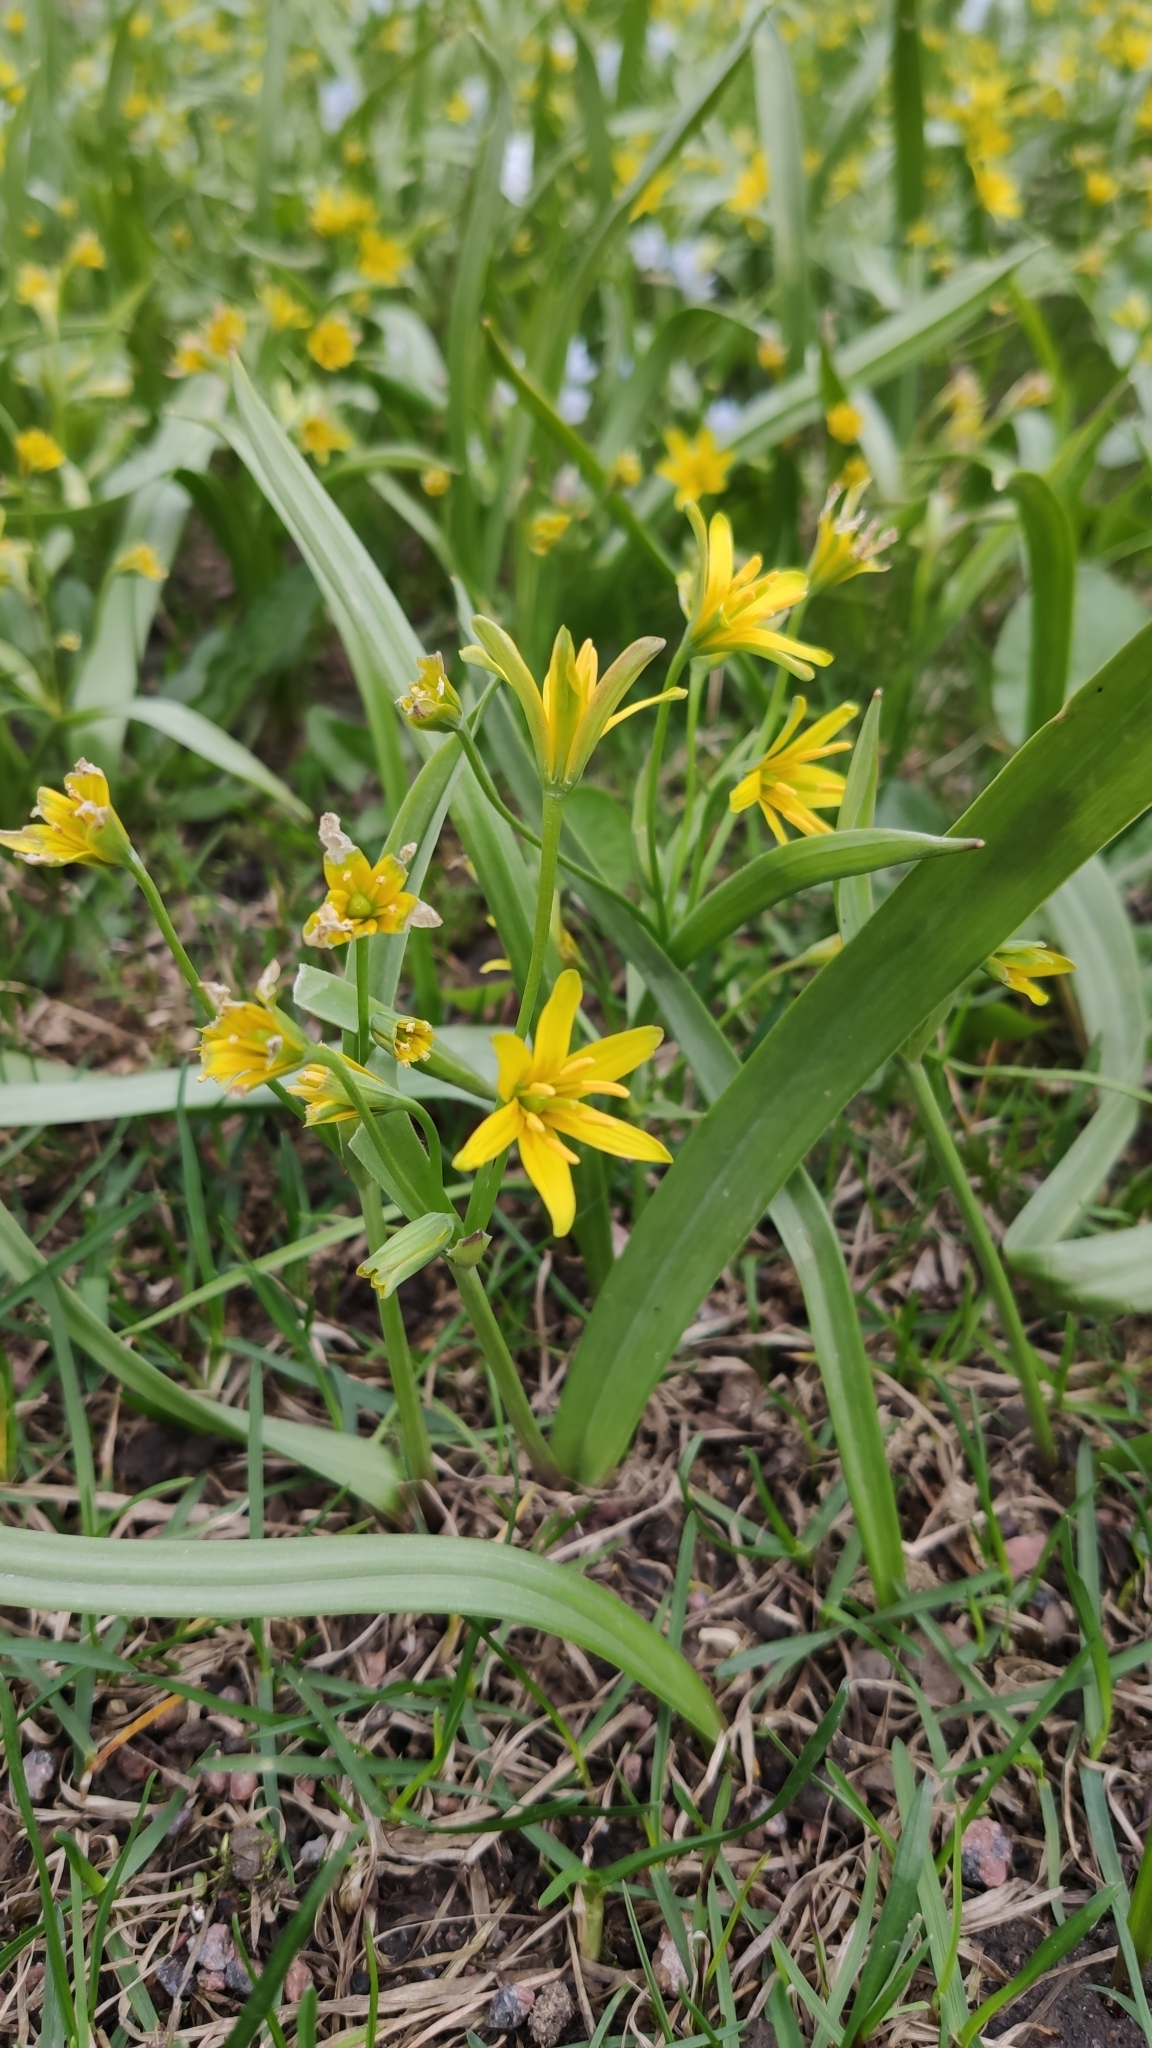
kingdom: Plantae
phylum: Tracheophyta
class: Liliopsida
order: Liliales
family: Liliaceae
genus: Gagea
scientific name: Gagea lutea
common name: Yellow star-of-bethlehem
